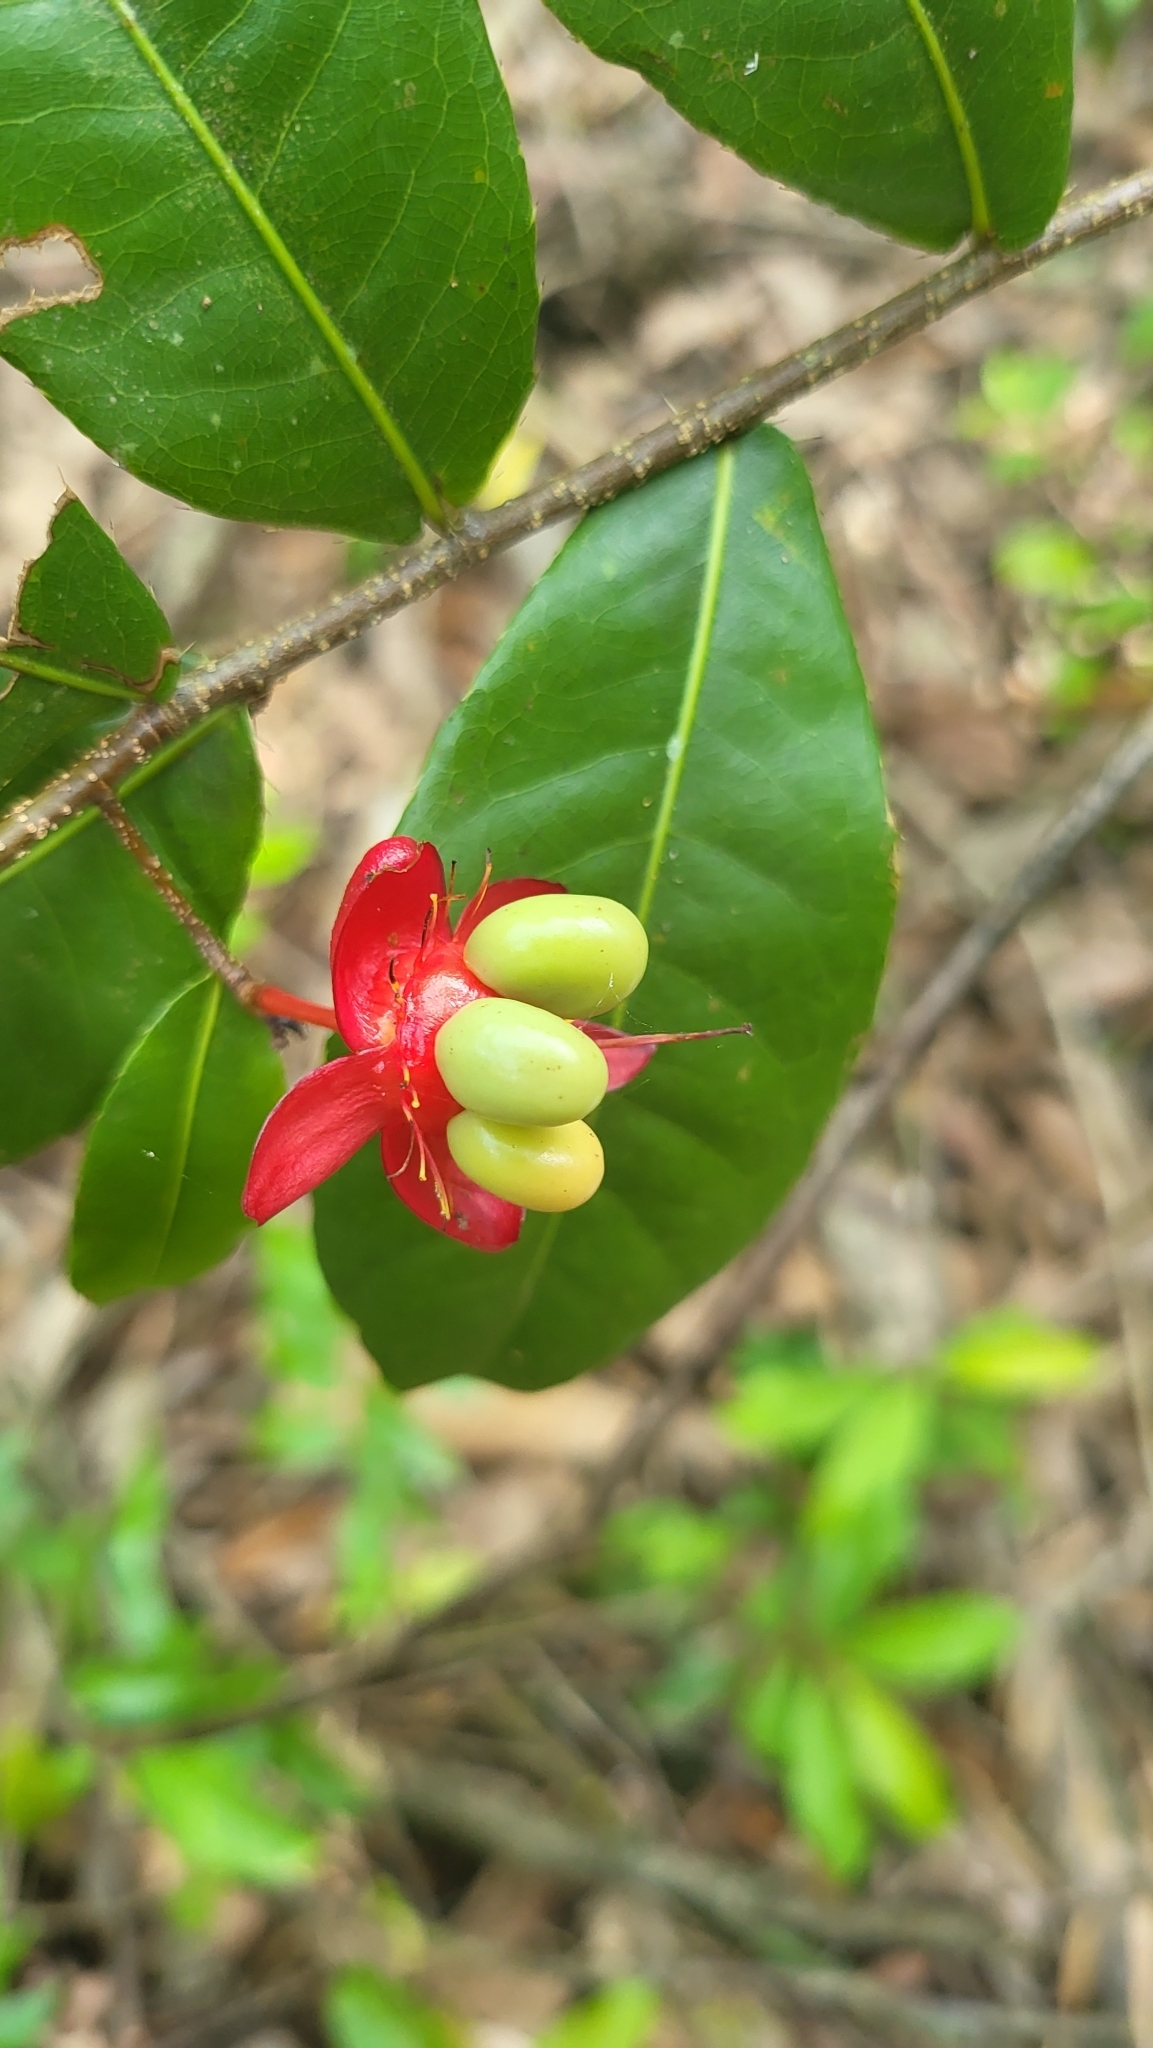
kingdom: Plantae
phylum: Tracheophyta
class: Magnoliopsida
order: Malpighiales
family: Ochnaceae
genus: Ochna
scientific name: Ochna serrulata
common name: Mickey mouse plant
